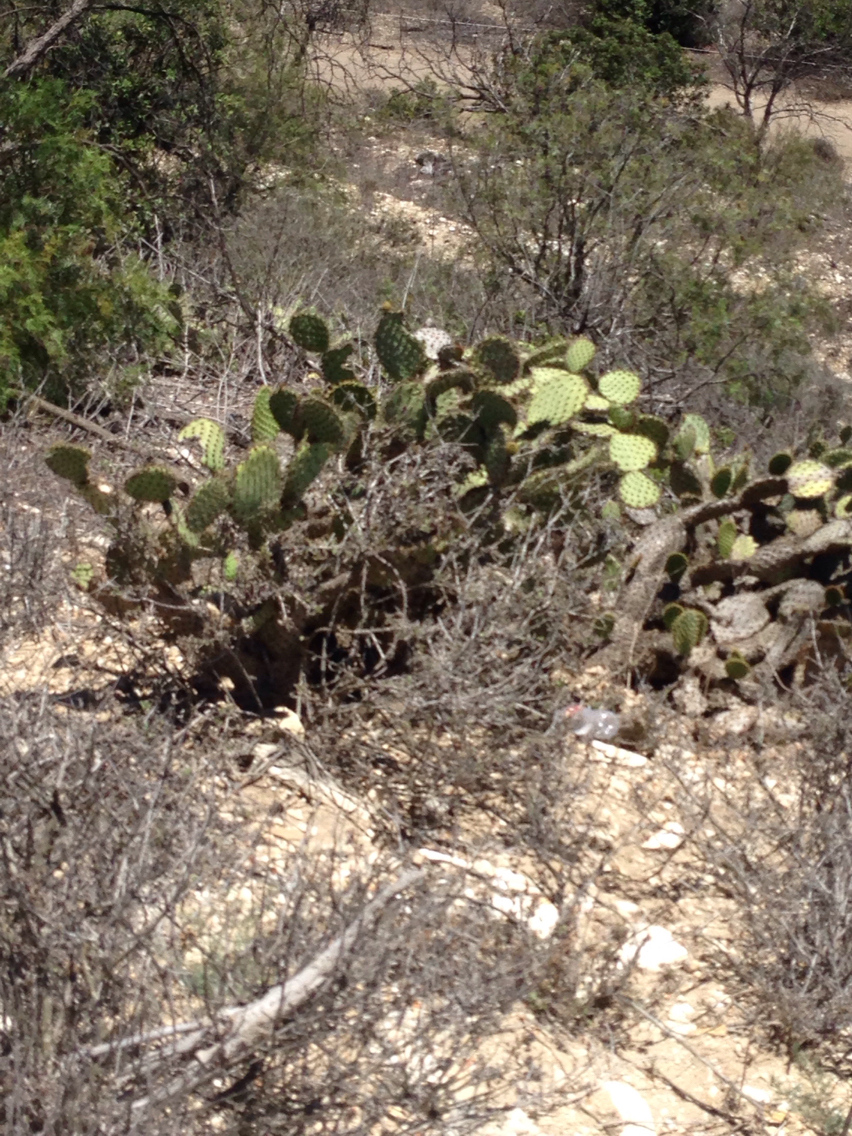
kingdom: Plantae
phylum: Tracheophyta
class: Magnoliopsida
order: Caryophyllales
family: Cactaceae
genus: Opuntia
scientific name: Opuntia oricola
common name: Chaparral prickly-pear
